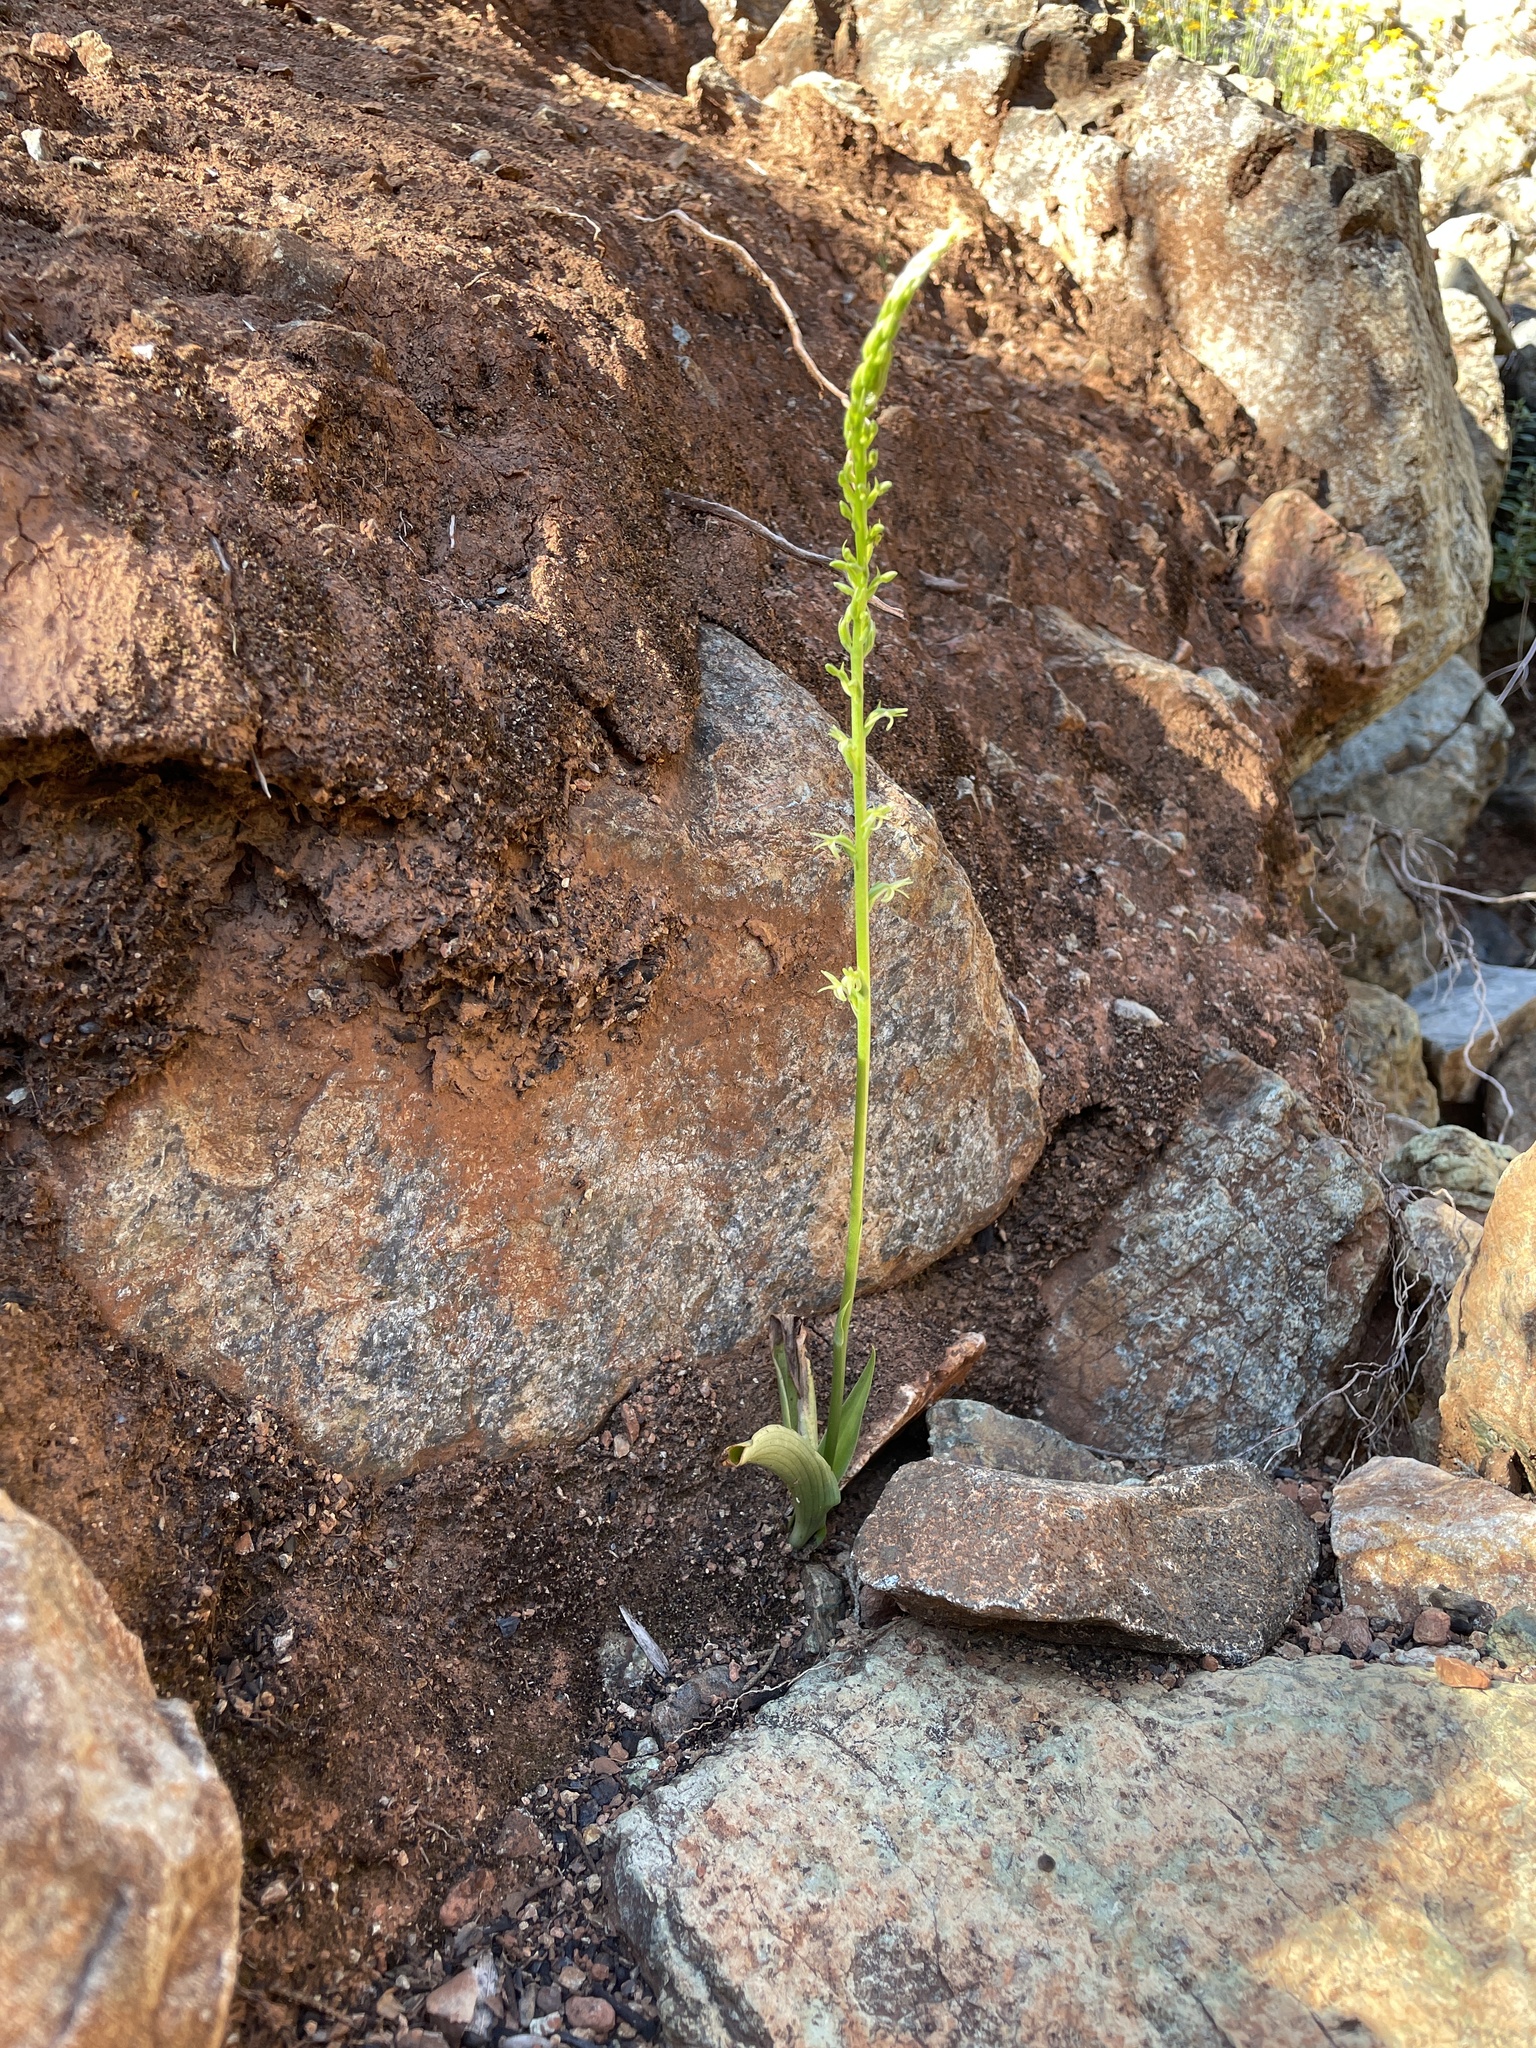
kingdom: Plantae
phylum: Tracheophyta
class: Liliopsida
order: Asparagales
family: Orchidaceae
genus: Platanthera
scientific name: Platanthera leptopetala
